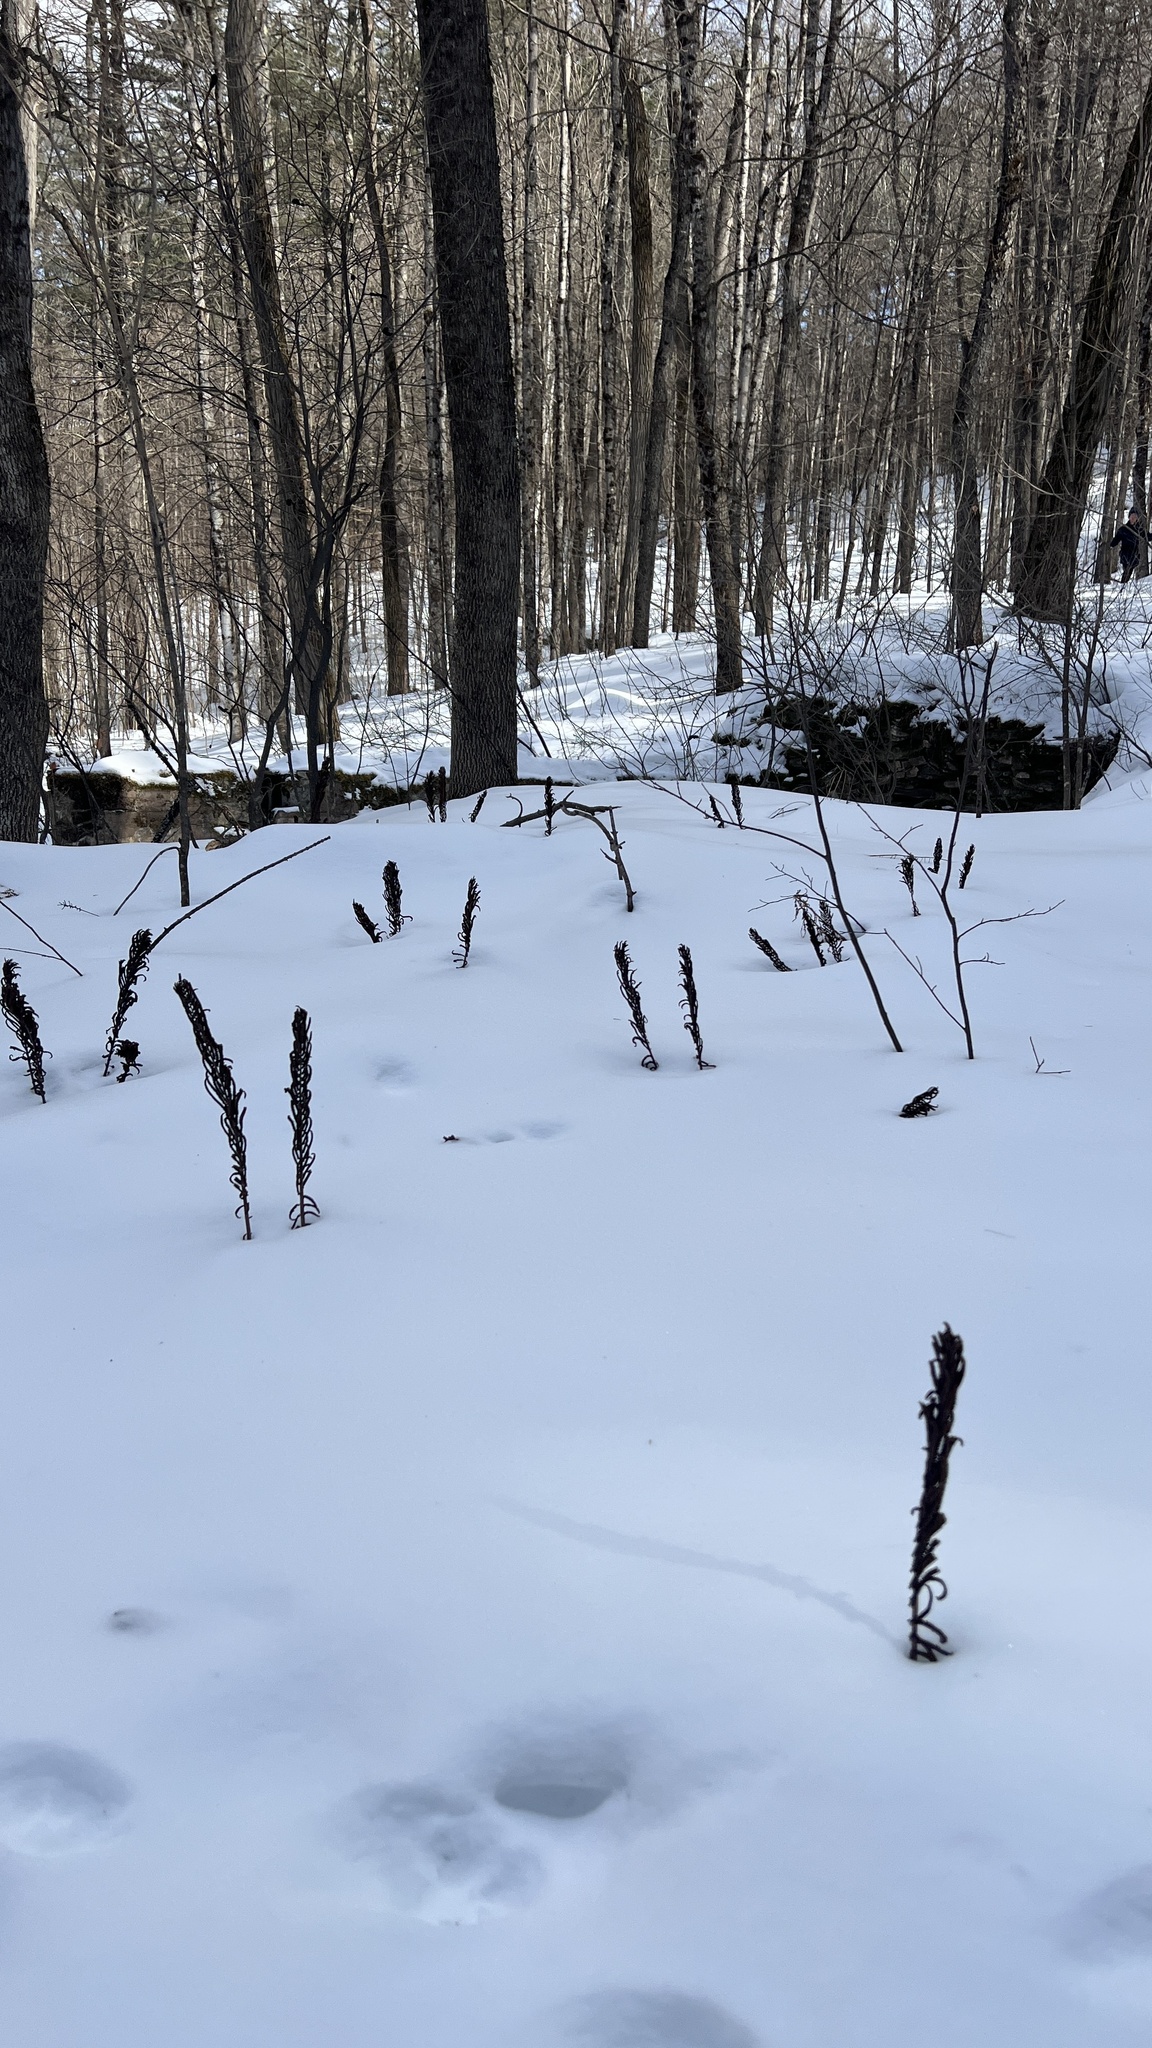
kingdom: Plantae
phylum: Tracheophyta
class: Polypodiopsida
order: Polypodiales
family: Onocleaceae
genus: Matteuccia
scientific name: Matteuccia struthiopteris
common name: Ostrich fern
